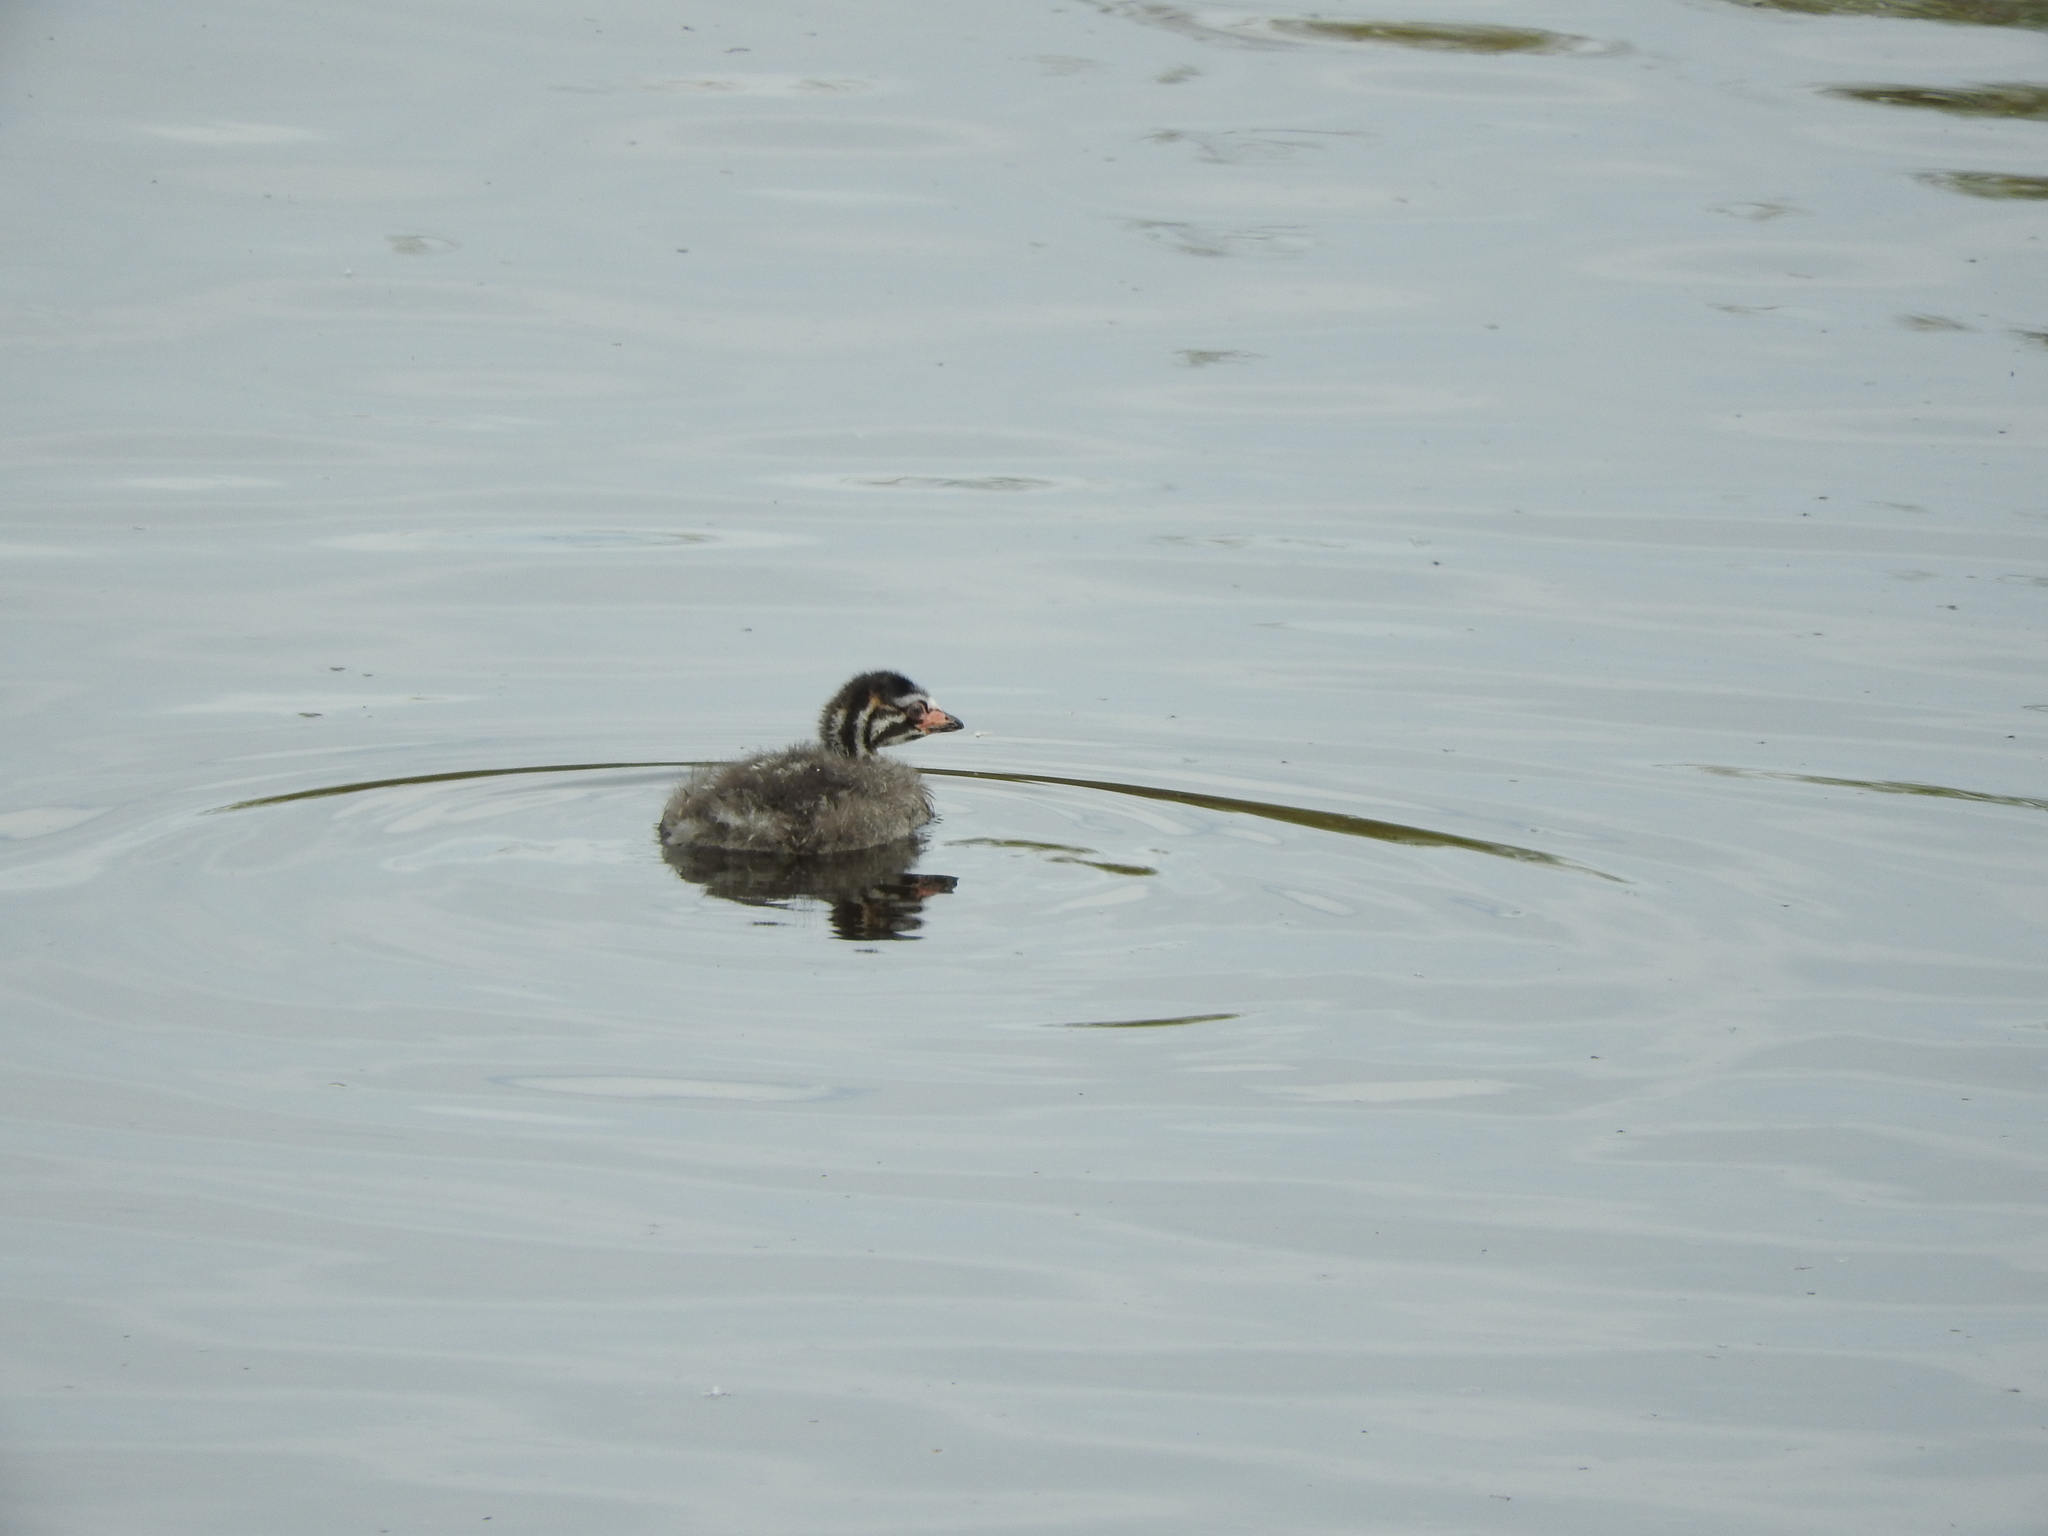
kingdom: Animalia
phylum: Chordata
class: Aves
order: Podicipediformes
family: Podicipedidae
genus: Podilymbus
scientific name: Podilymbus podiceps
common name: Pied-billed grebe
